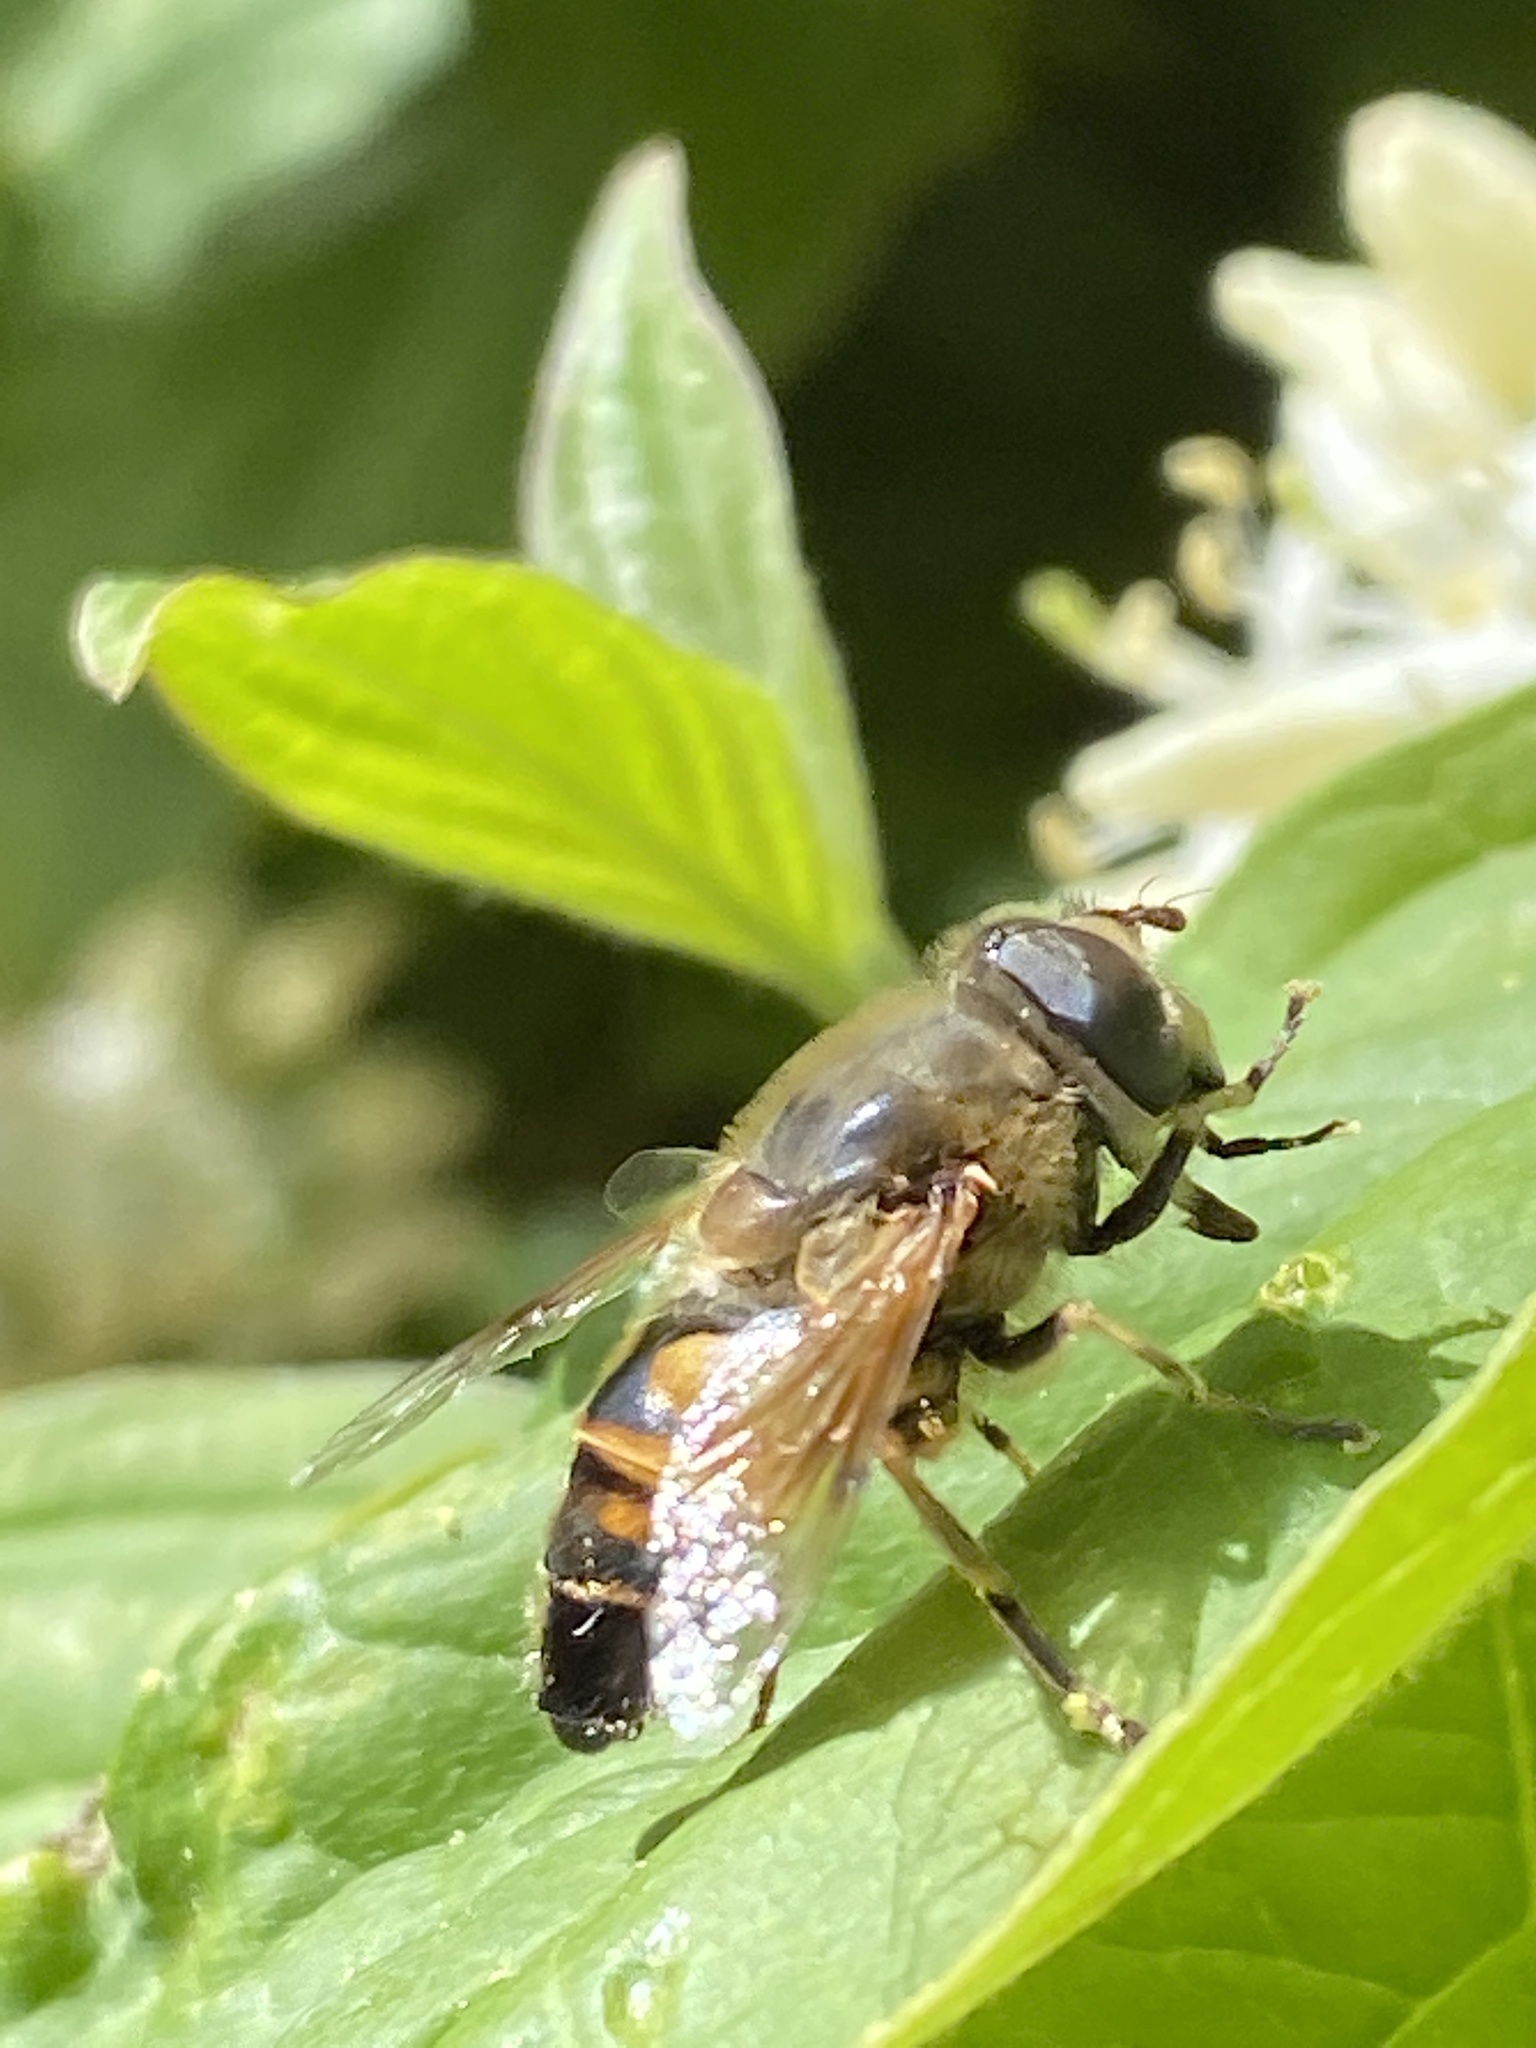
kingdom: Animalia
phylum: Arthropoda
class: Insecta
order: Diptera
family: Syrphidae
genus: Eristalis
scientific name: Eristalis tenax
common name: Drone fly
